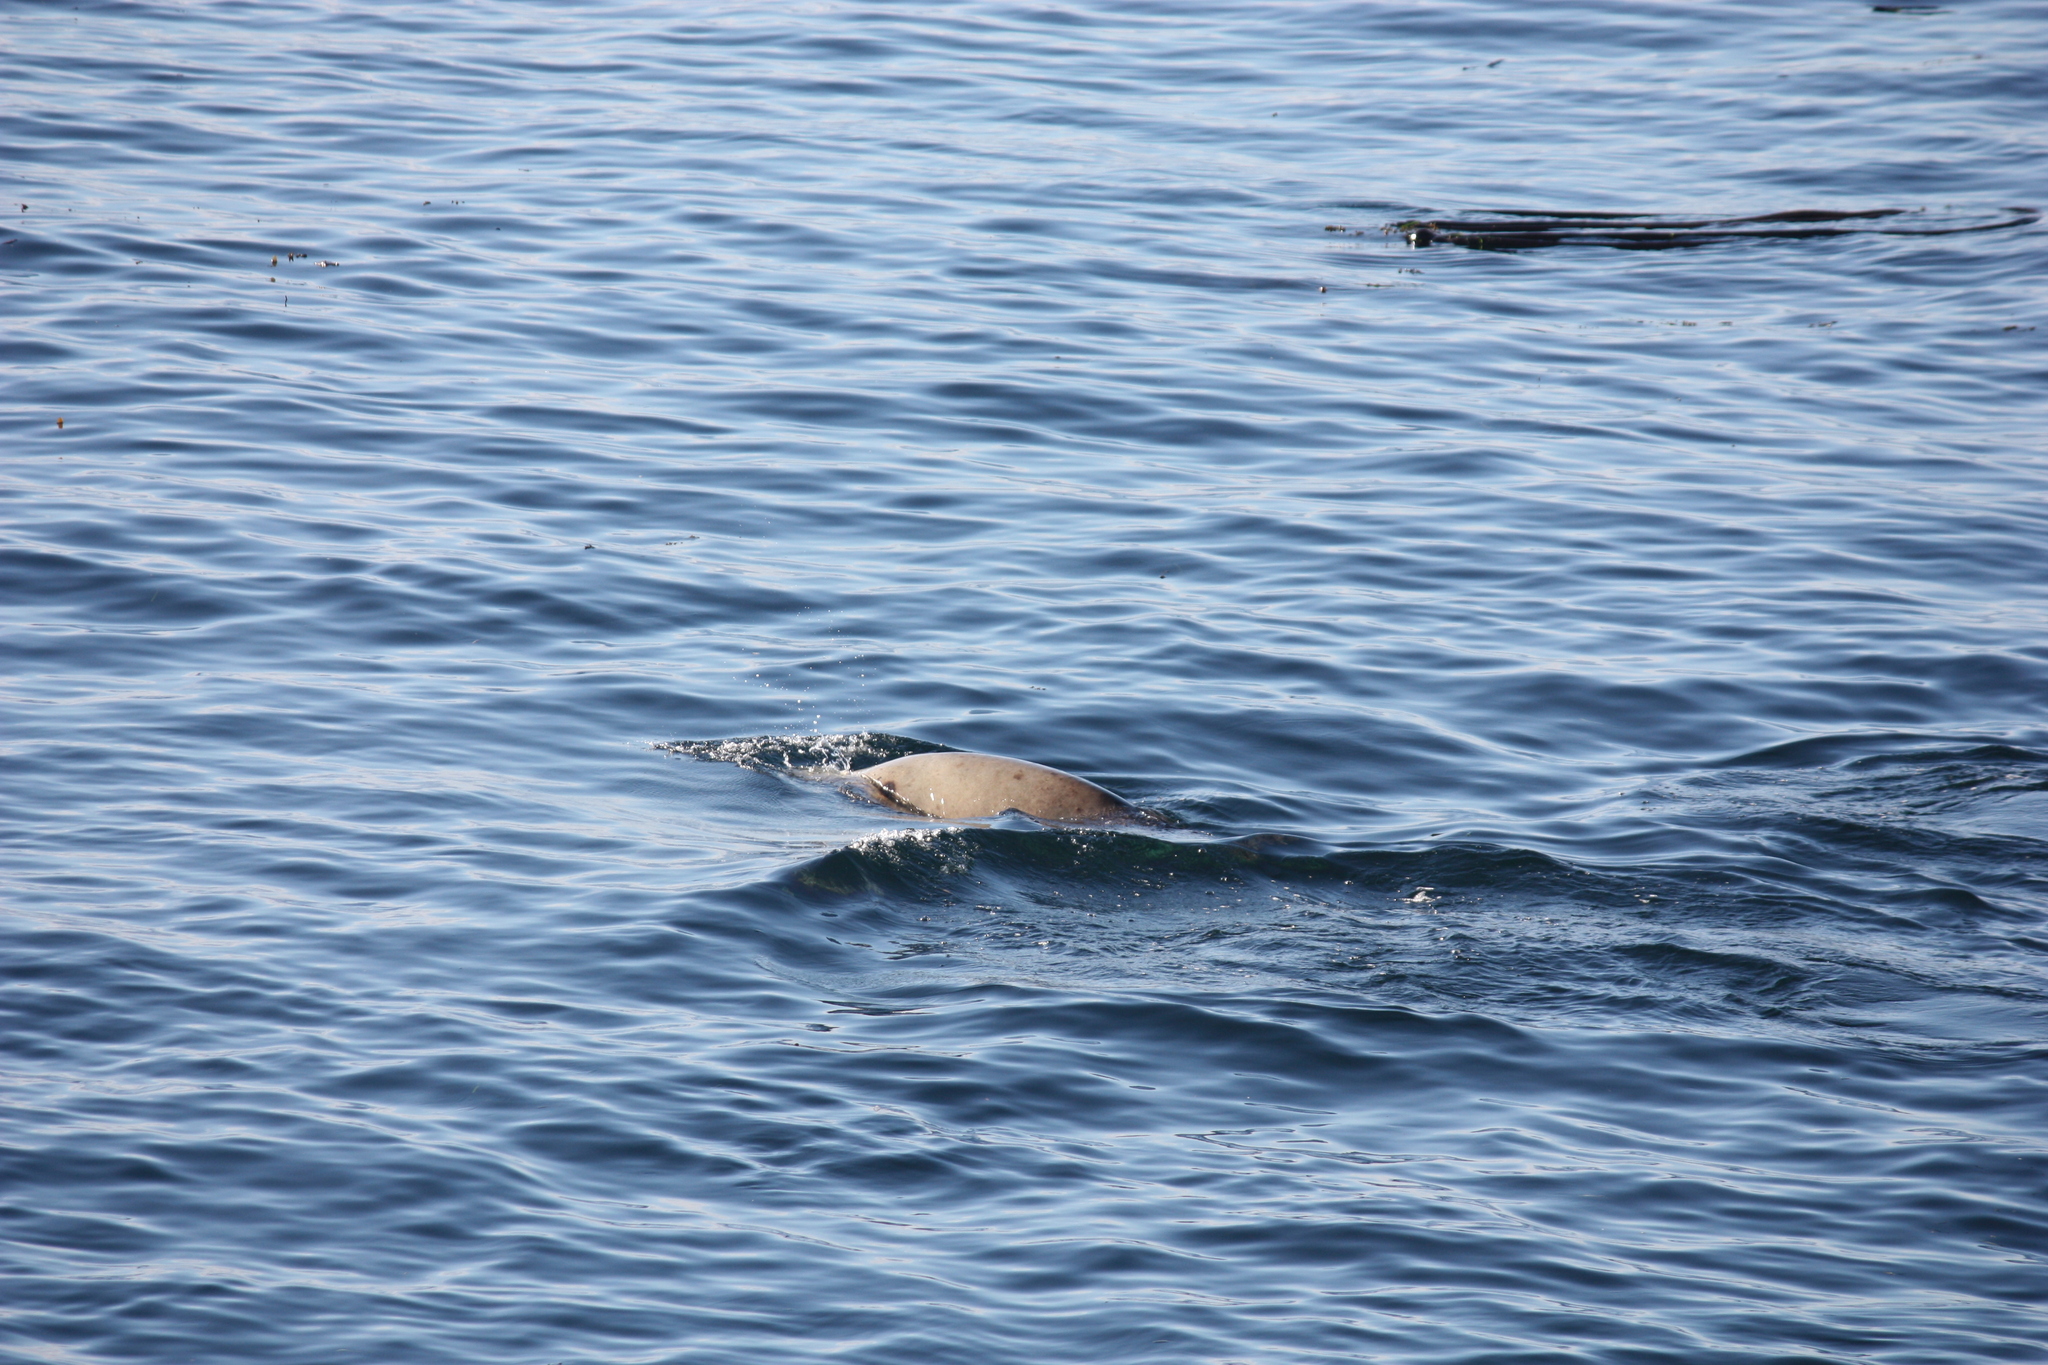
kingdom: Animalia
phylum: Chordata
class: Mammalia
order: Carnivora
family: Otariidae
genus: Eumetopias
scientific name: Eumetopias jubatus
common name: Steller sea lion
